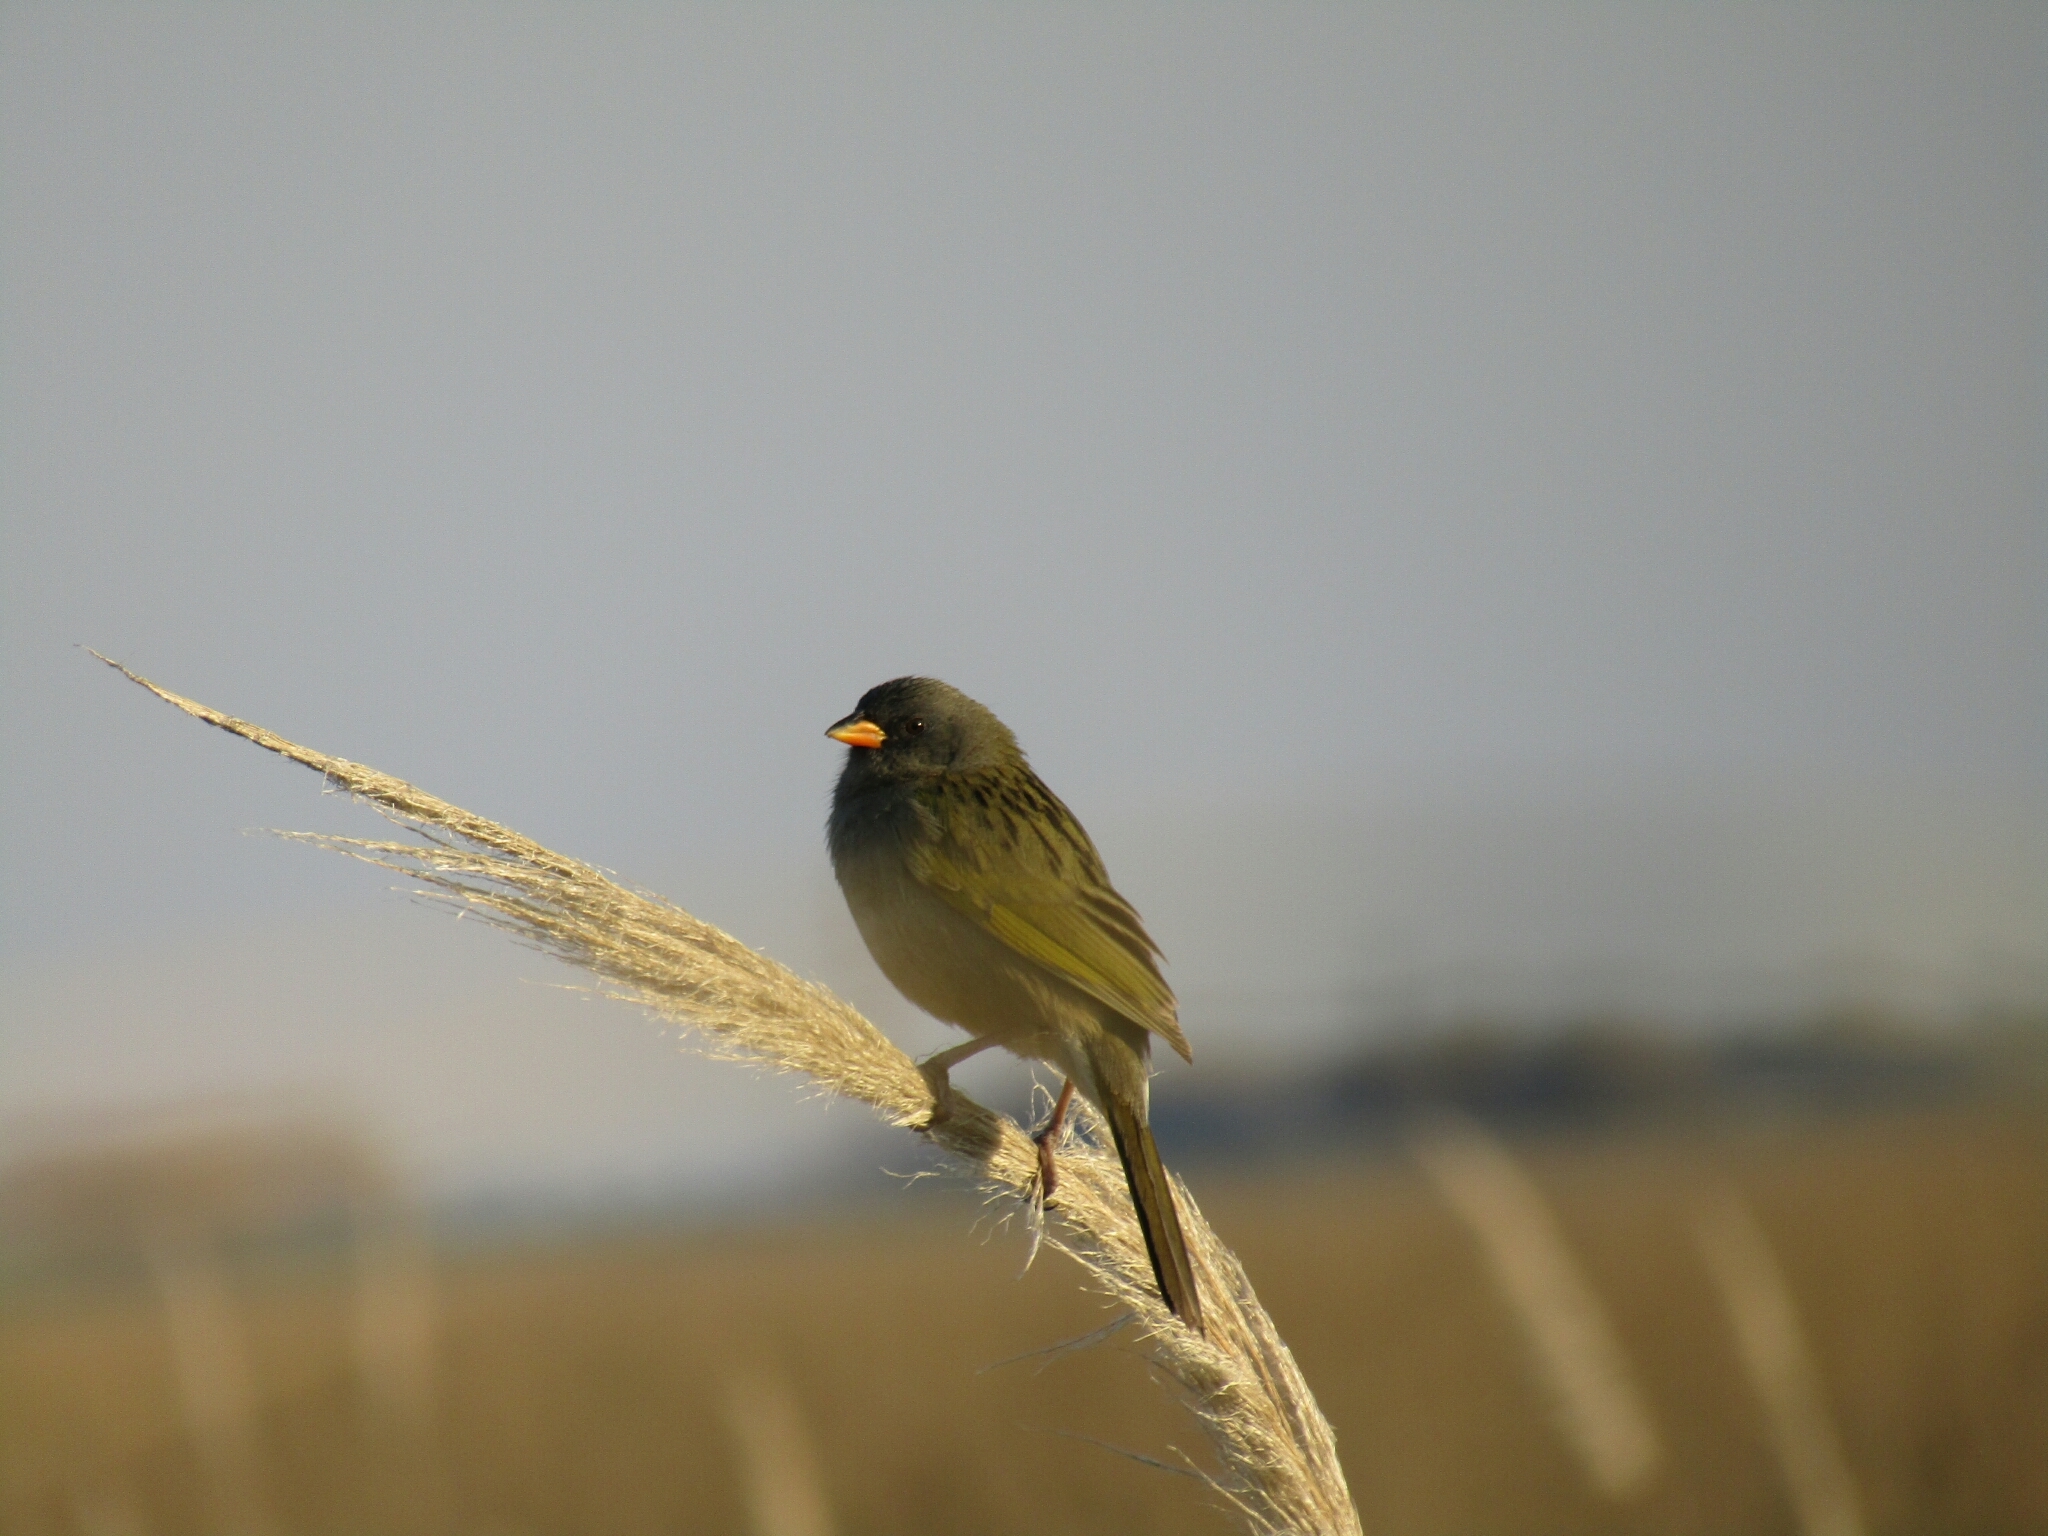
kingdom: Animalia
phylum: Chordata
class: Aves
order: Passeriformes
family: Thraupidae
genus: Embernagra
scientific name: Embernagra platensis
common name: Pampa finch
